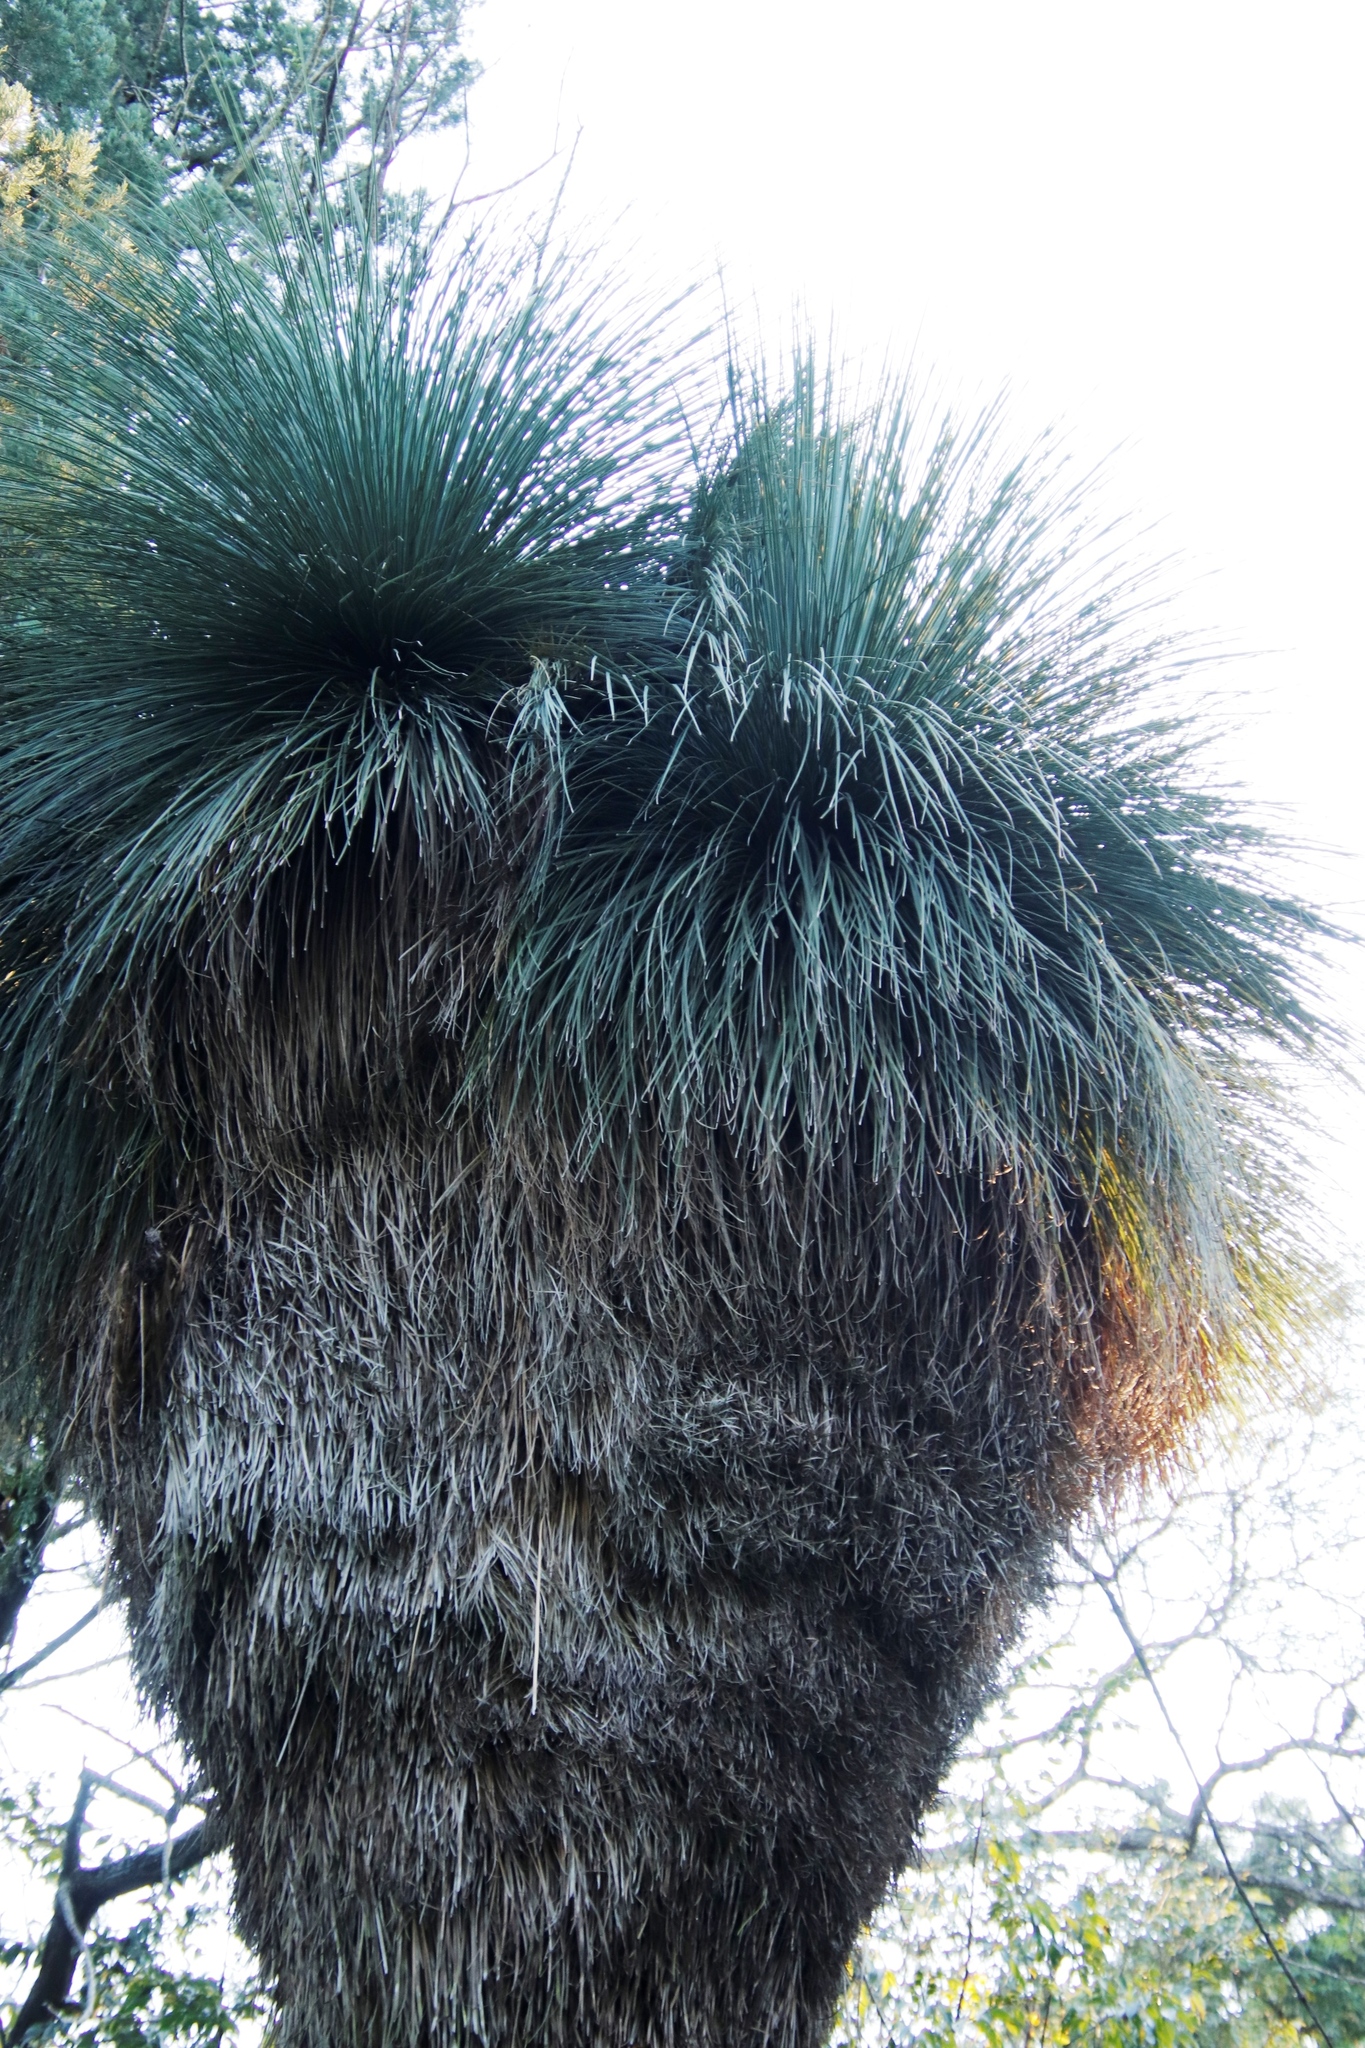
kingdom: Plantae
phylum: Tracheophyta
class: Liliopsida
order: Asparagales
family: Asphodelaceae
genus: Xanthorrhoea
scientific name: Xanthorrhoea glauca
